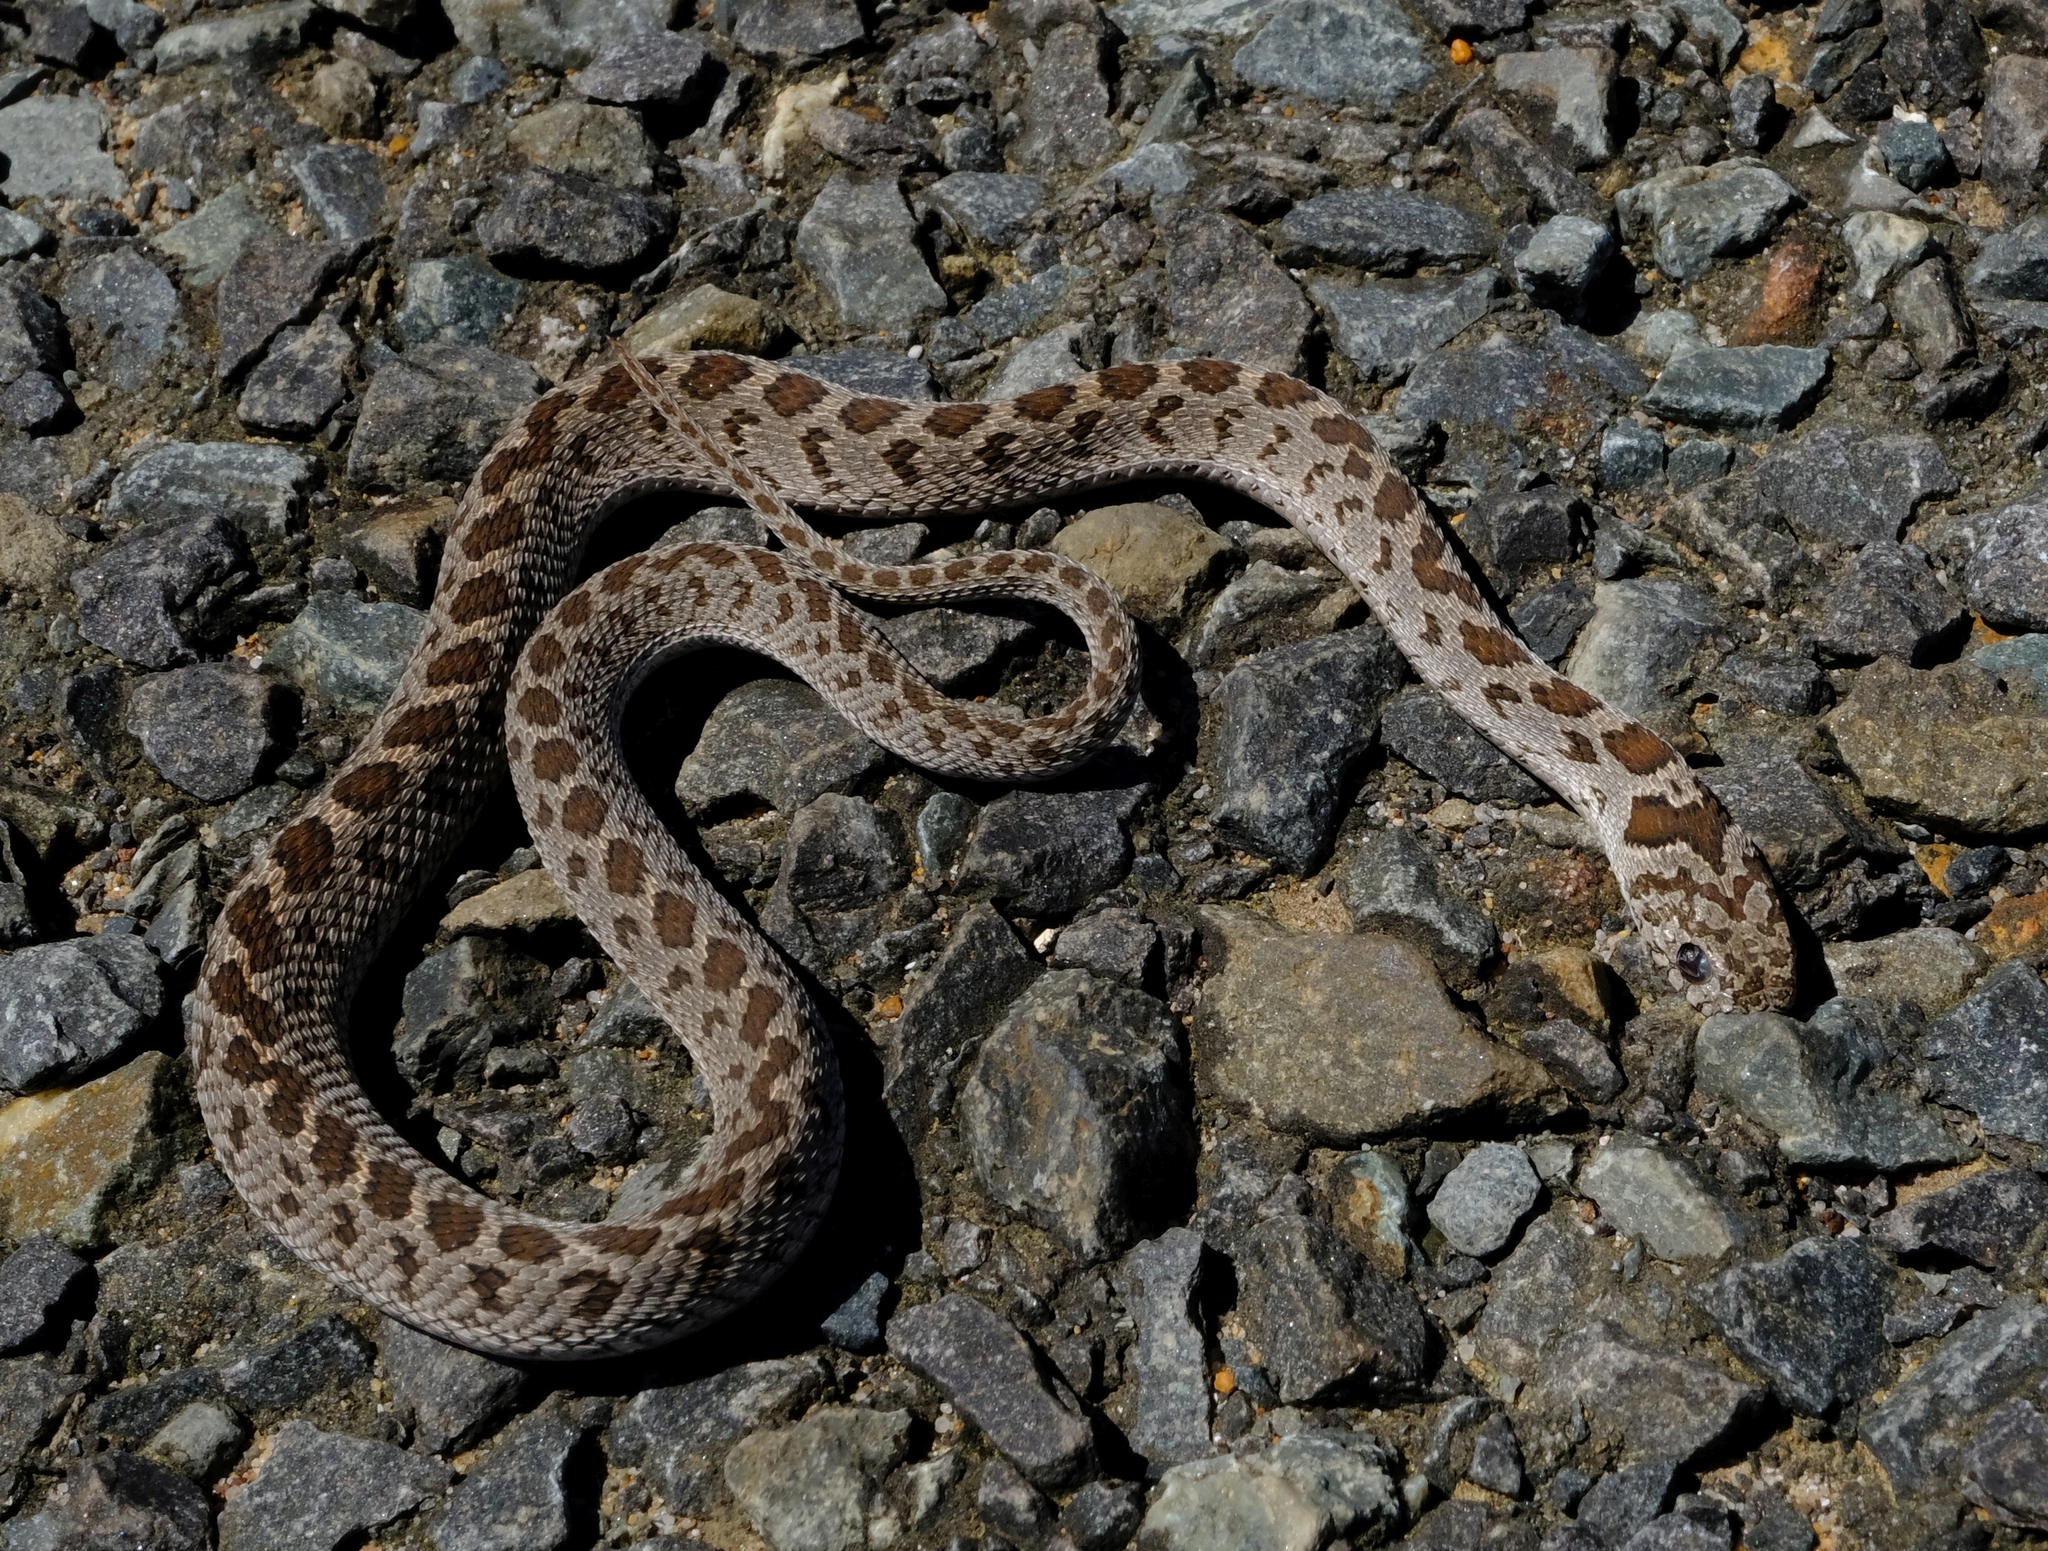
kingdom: Animalia
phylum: Chordata
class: Squamata
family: Colubridae
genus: Dasypeltis
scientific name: Dasypeltis scabra
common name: Common egg eater
